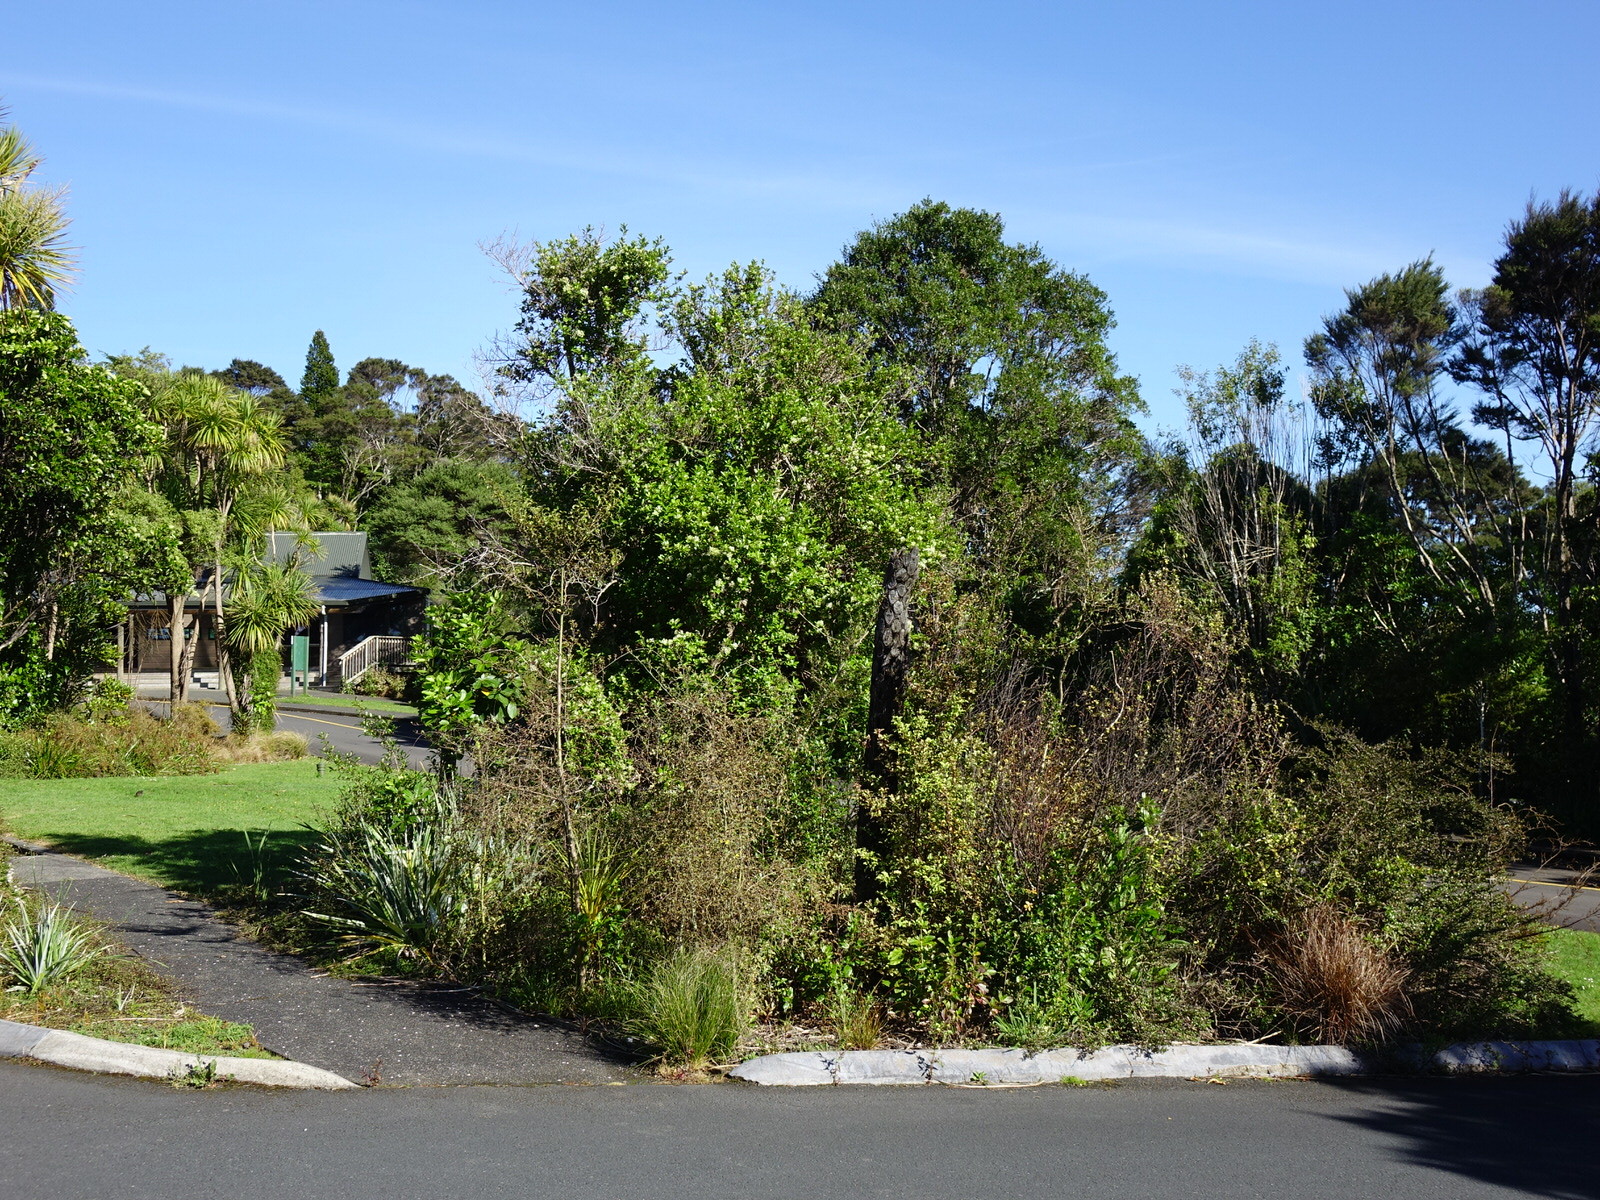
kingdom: Animalia
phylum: Chordata
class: Aves
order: Passeriformes
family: Passeridae
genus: Passer
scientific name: Passer domesticus
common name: House sparrow
